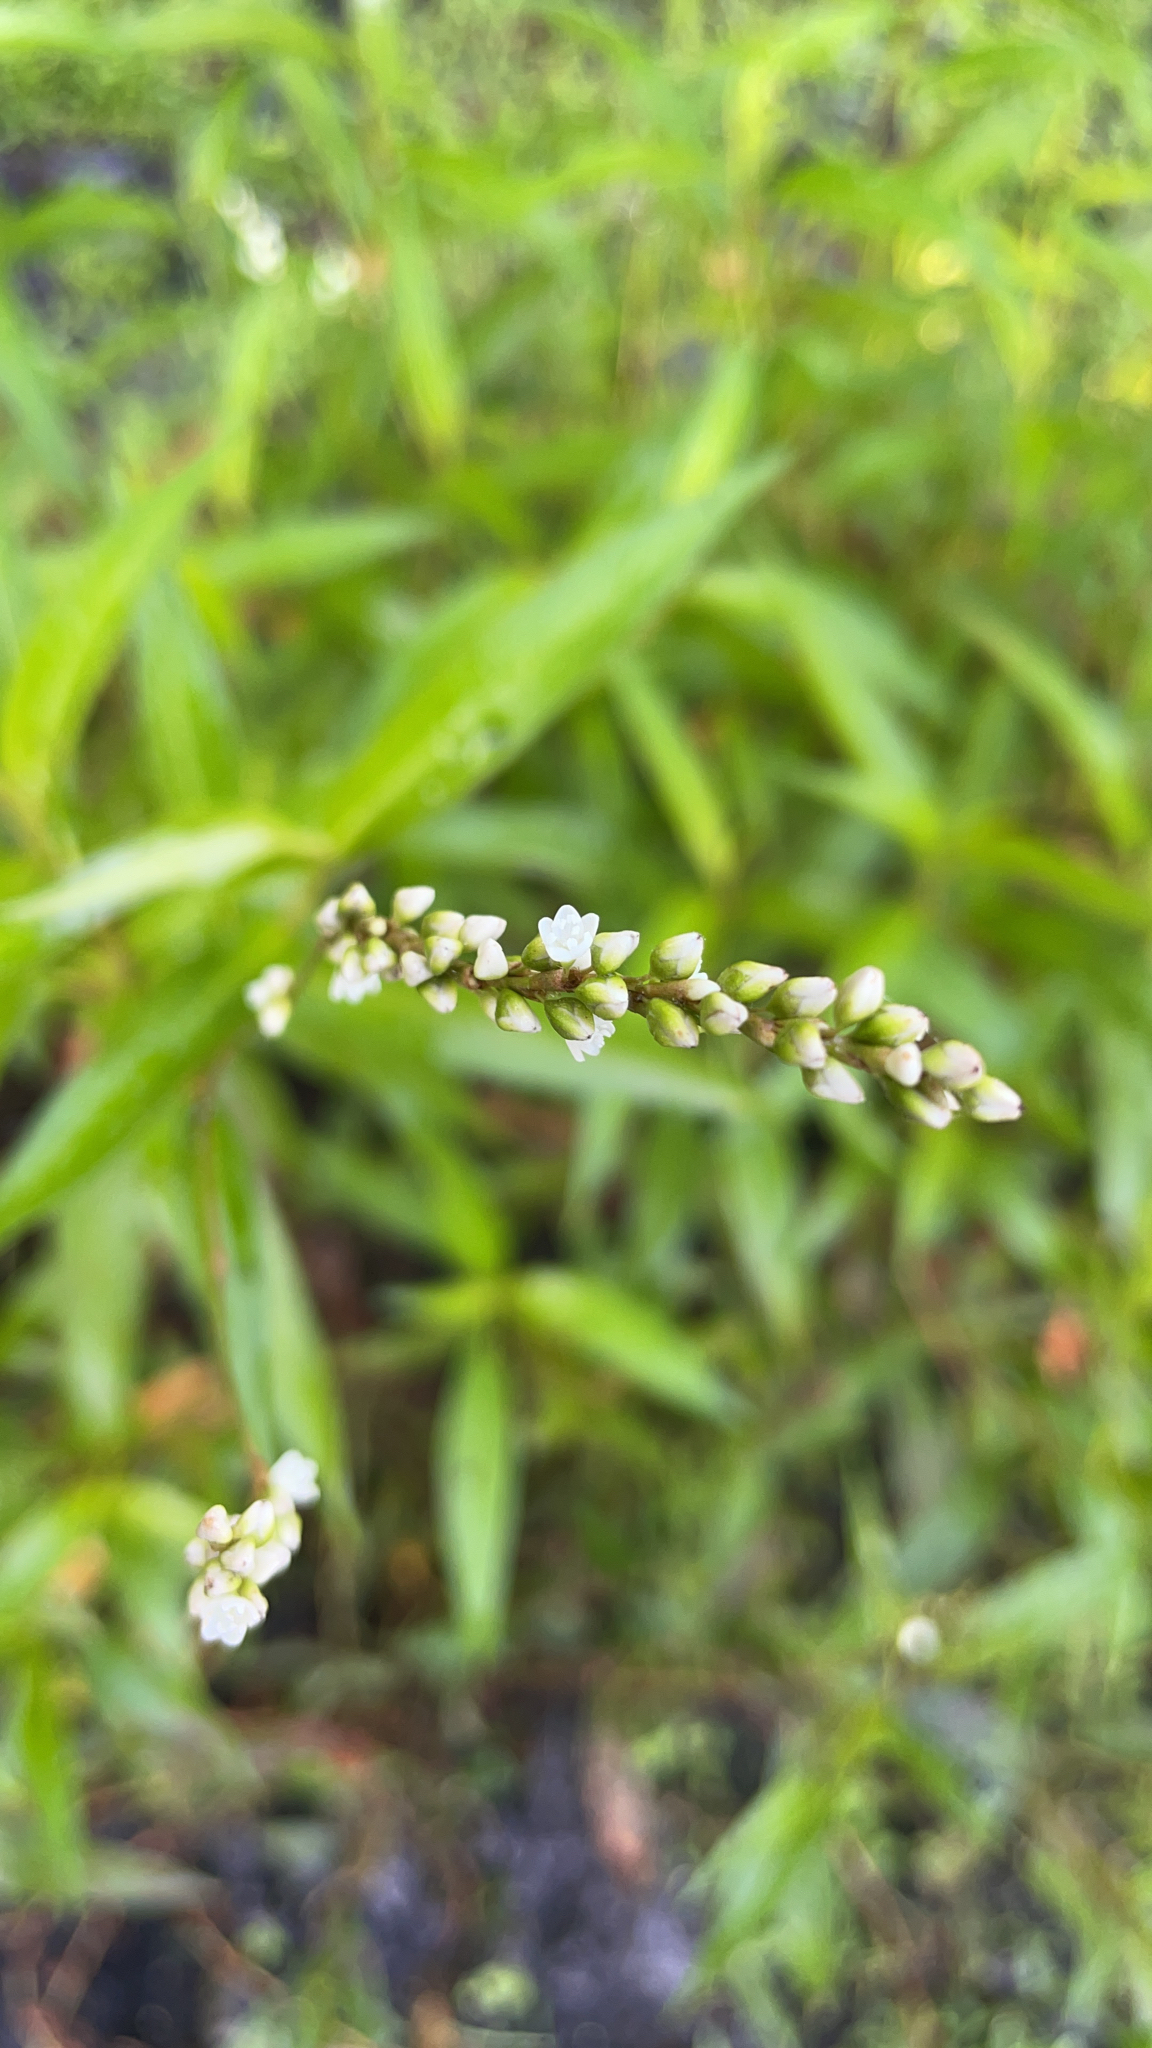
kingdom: Plantae
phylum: Tracheophyta
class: Magnoliopsida
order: Caryophyllales
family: Polygonaceae
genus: Persicaria
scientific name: Persicaria hydropiperoides
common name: Swamp smartweed
